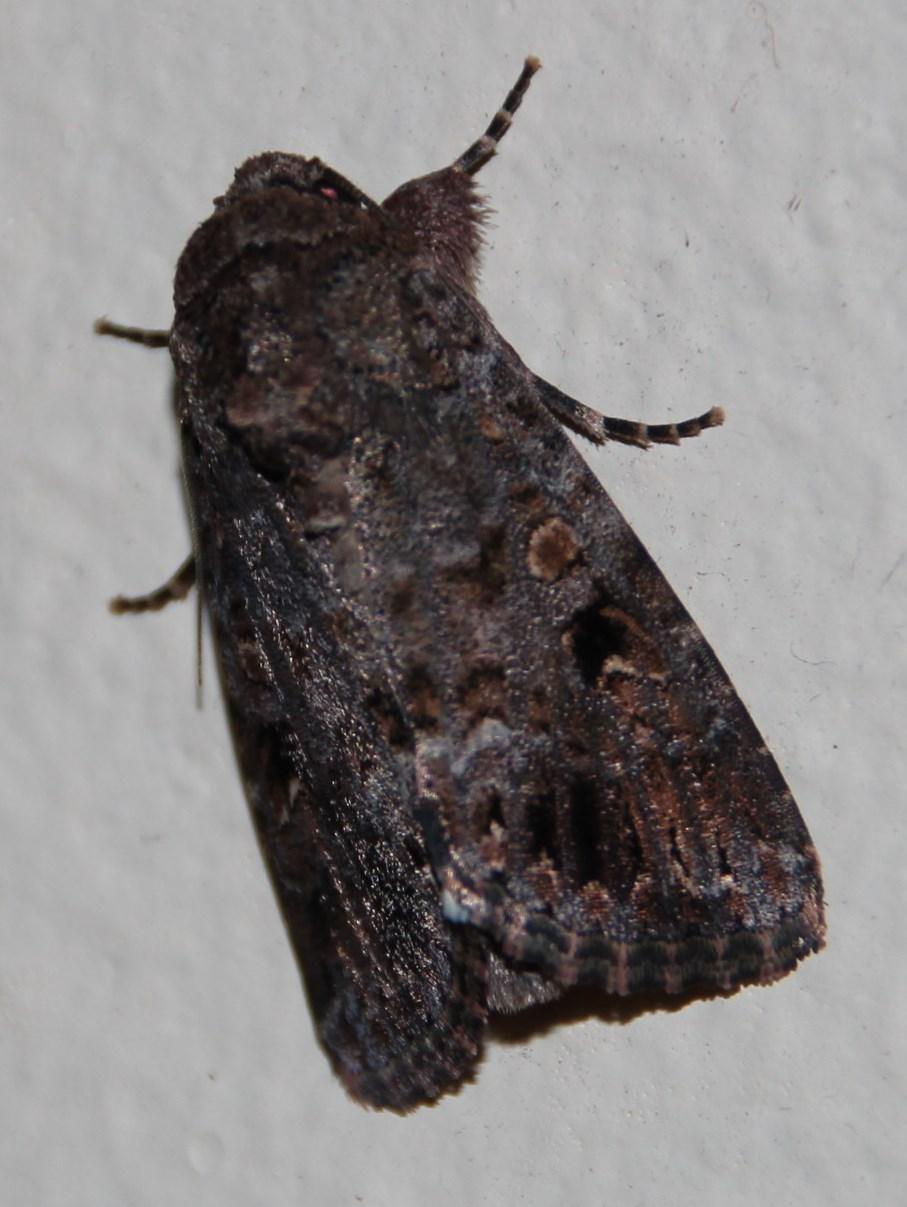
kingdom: Animalia
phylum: Arthropoda
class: Insecta
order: Lepidoptera
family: Noctuidae
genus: Spodoptera
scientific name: Spodoptera triturata
